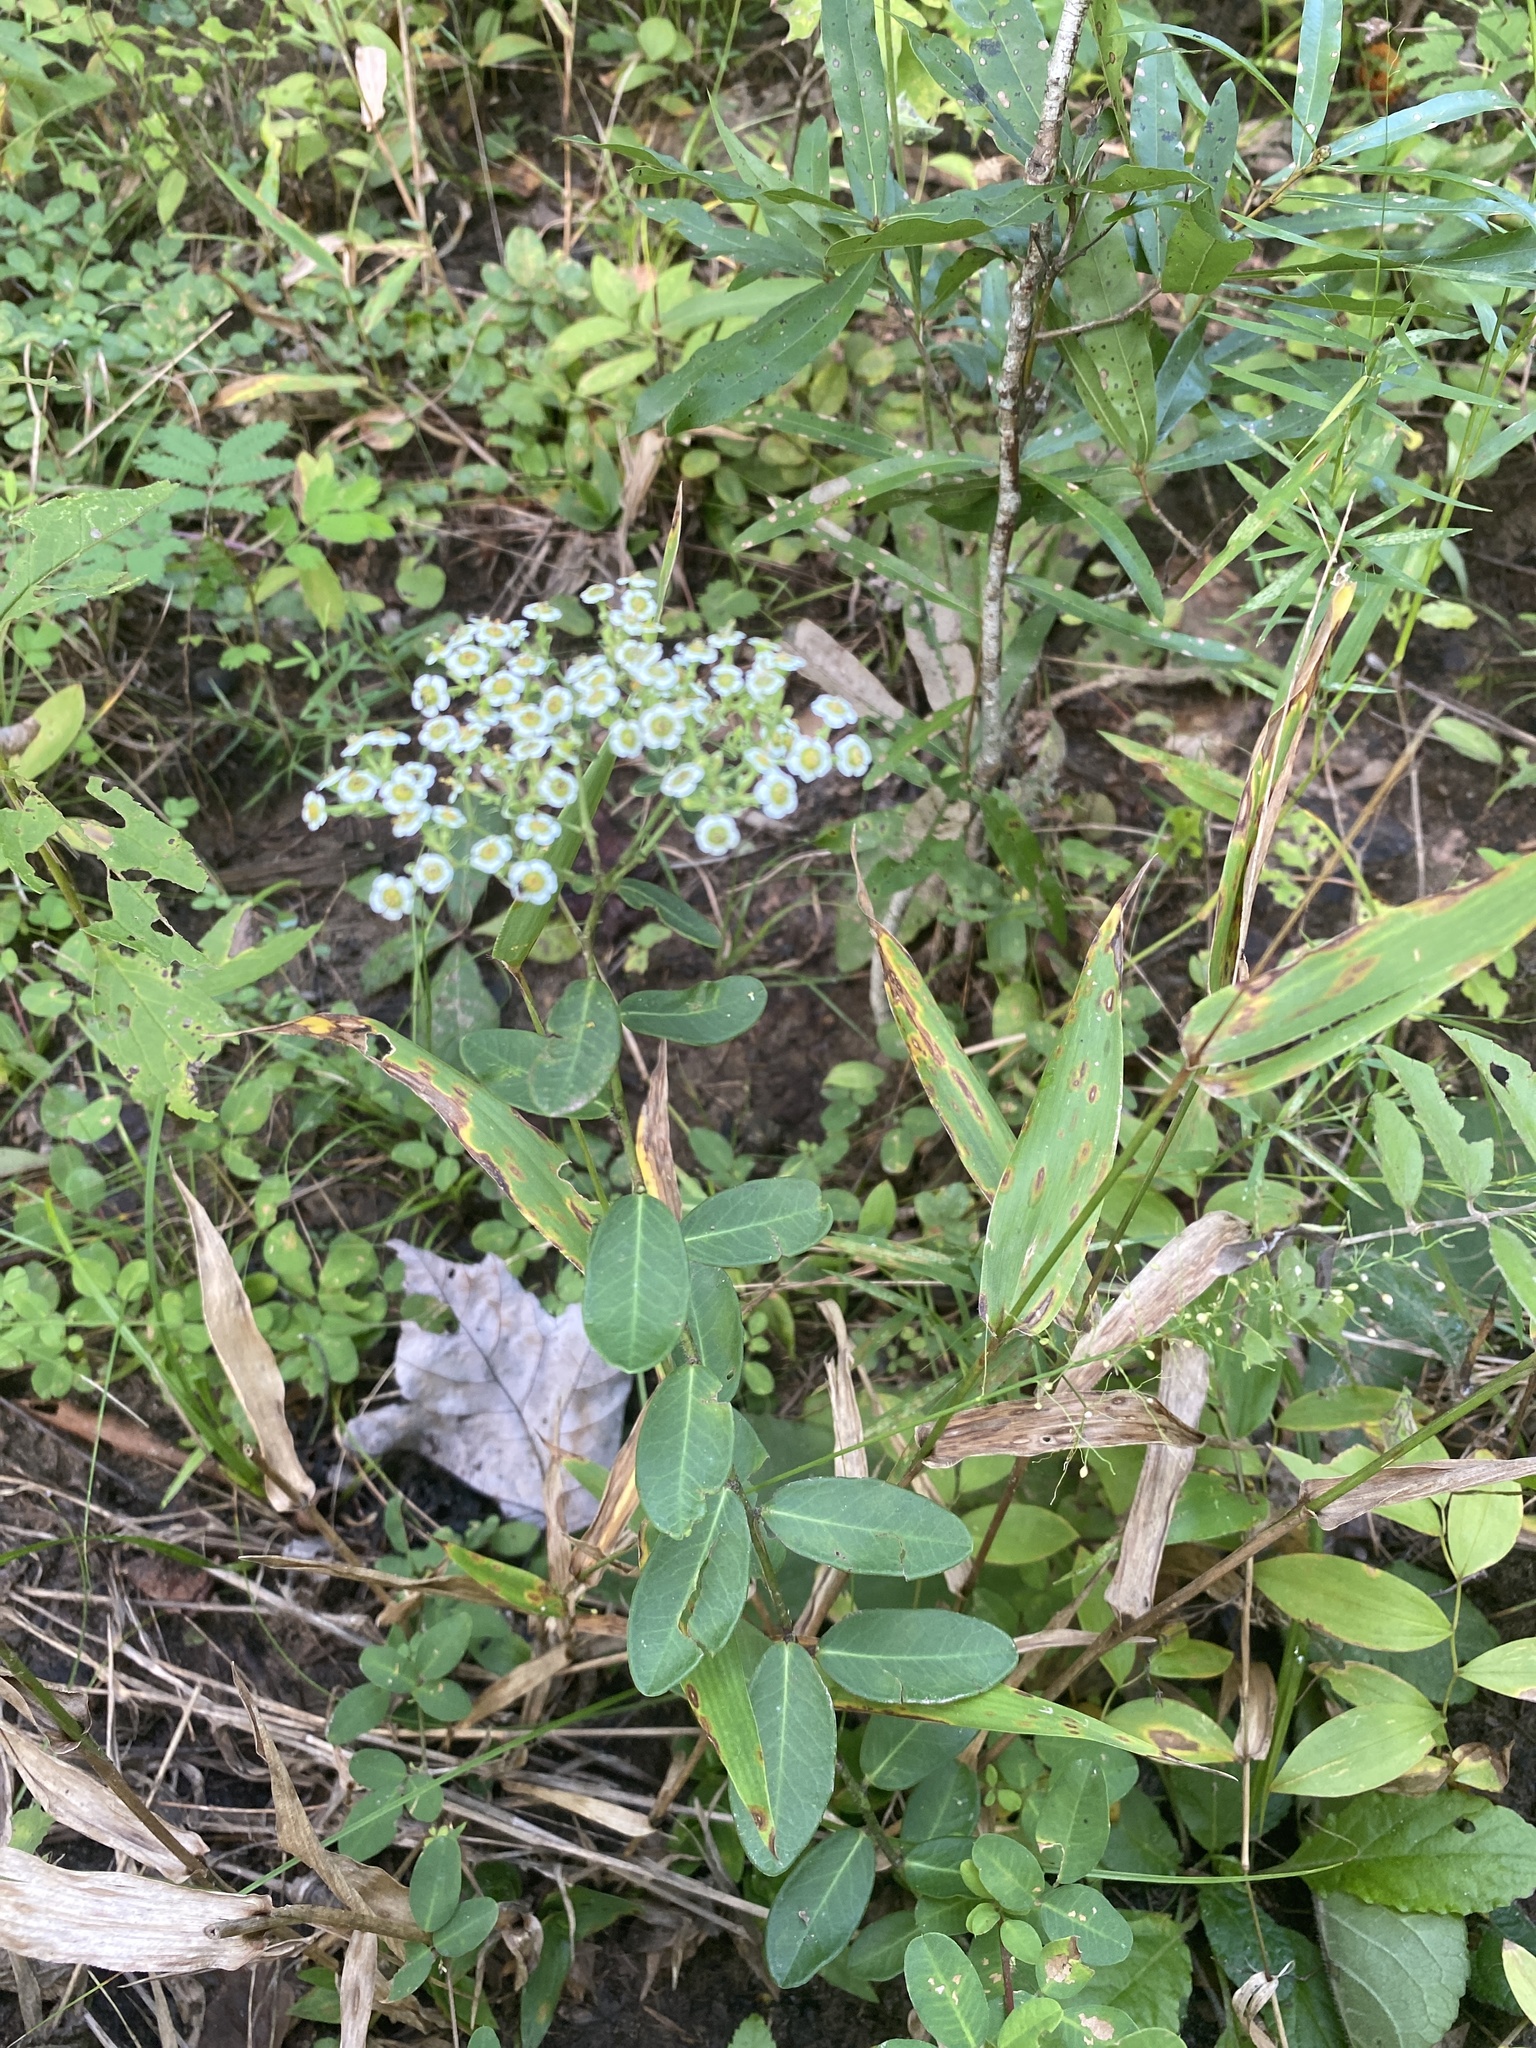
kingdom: Plantae
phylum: Tracheophyta
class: Magnoliopsida
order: Malpighiales
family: Euphorbiaceae
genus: Euphorbia
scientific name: Euphorbia corollata
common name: Flowering spurge
